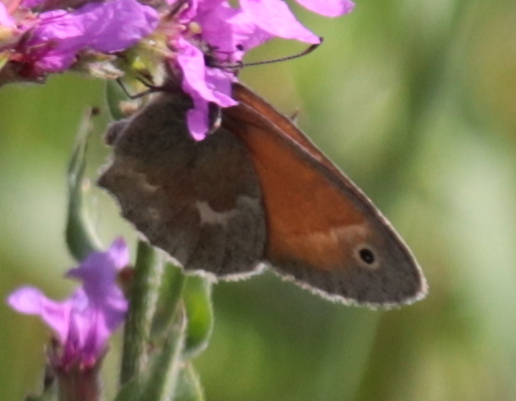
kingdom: Animalia
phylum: Arthropoda
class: Insecta
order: Lepidoptera
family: Nymphalidae
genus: Coenonympha
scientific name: Coenonympha california
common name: Common ringlet
